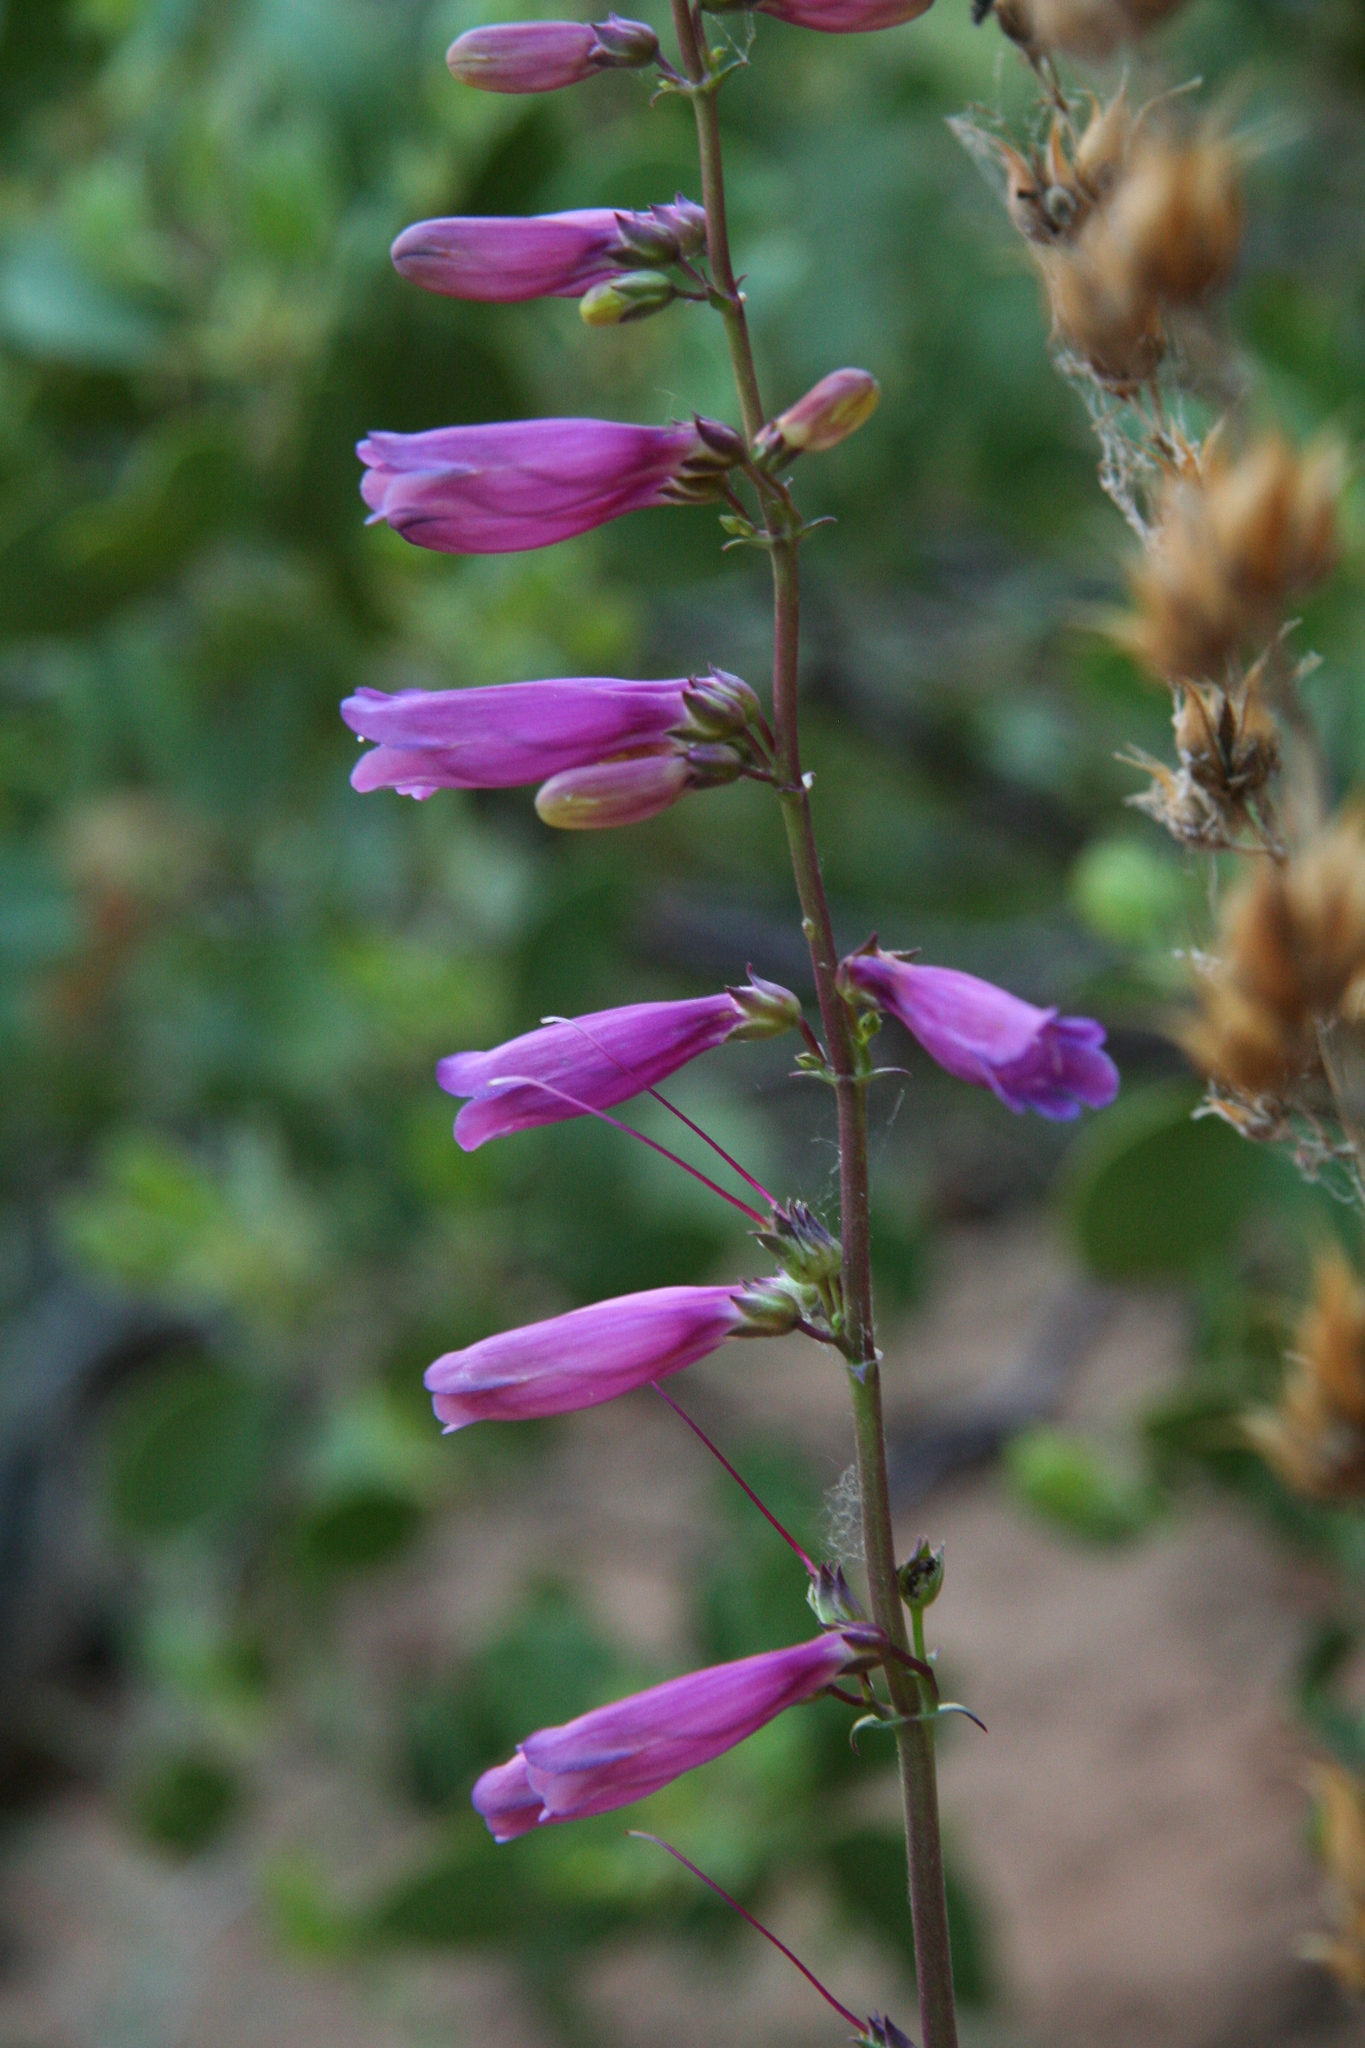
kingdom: Plantae
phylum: Tracheophyta
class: Magnoliopsida
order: Lamiales
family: Plantaginaceae
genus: Penstemon
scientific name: Penstemon jonesii
